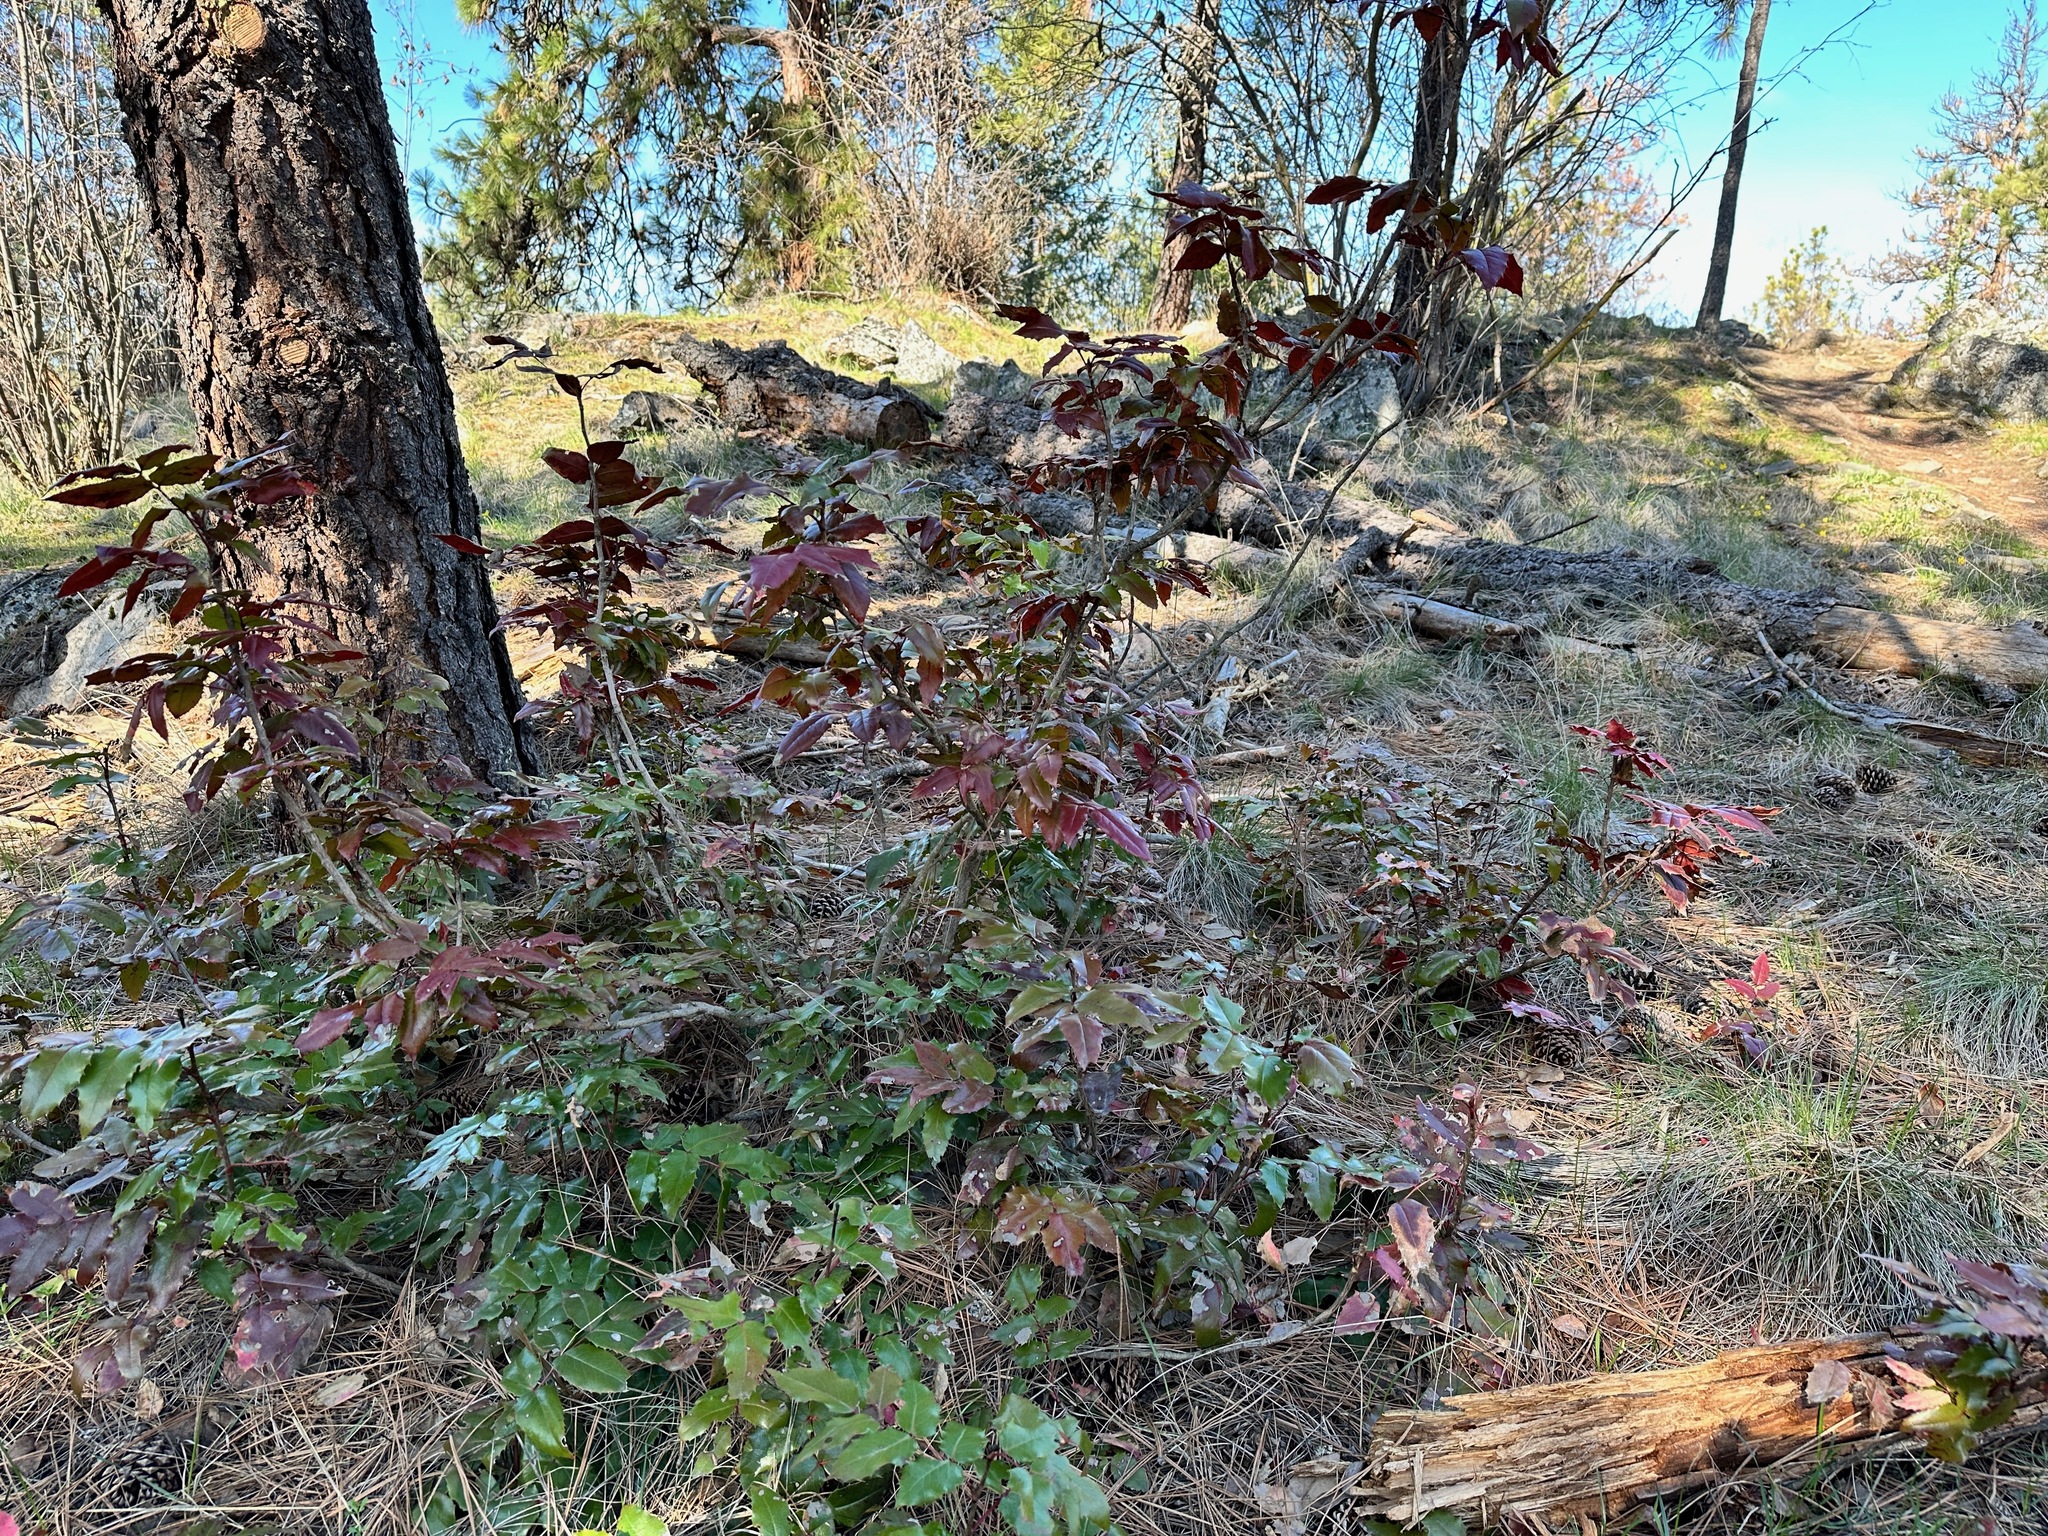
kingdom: Plantae
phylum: Tracheophyta
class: Magnoliopsida
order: Ranunculales
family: Berberidaceae
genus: Mahonia
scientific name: Mahonia aquifolium
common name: Oregon-grape
